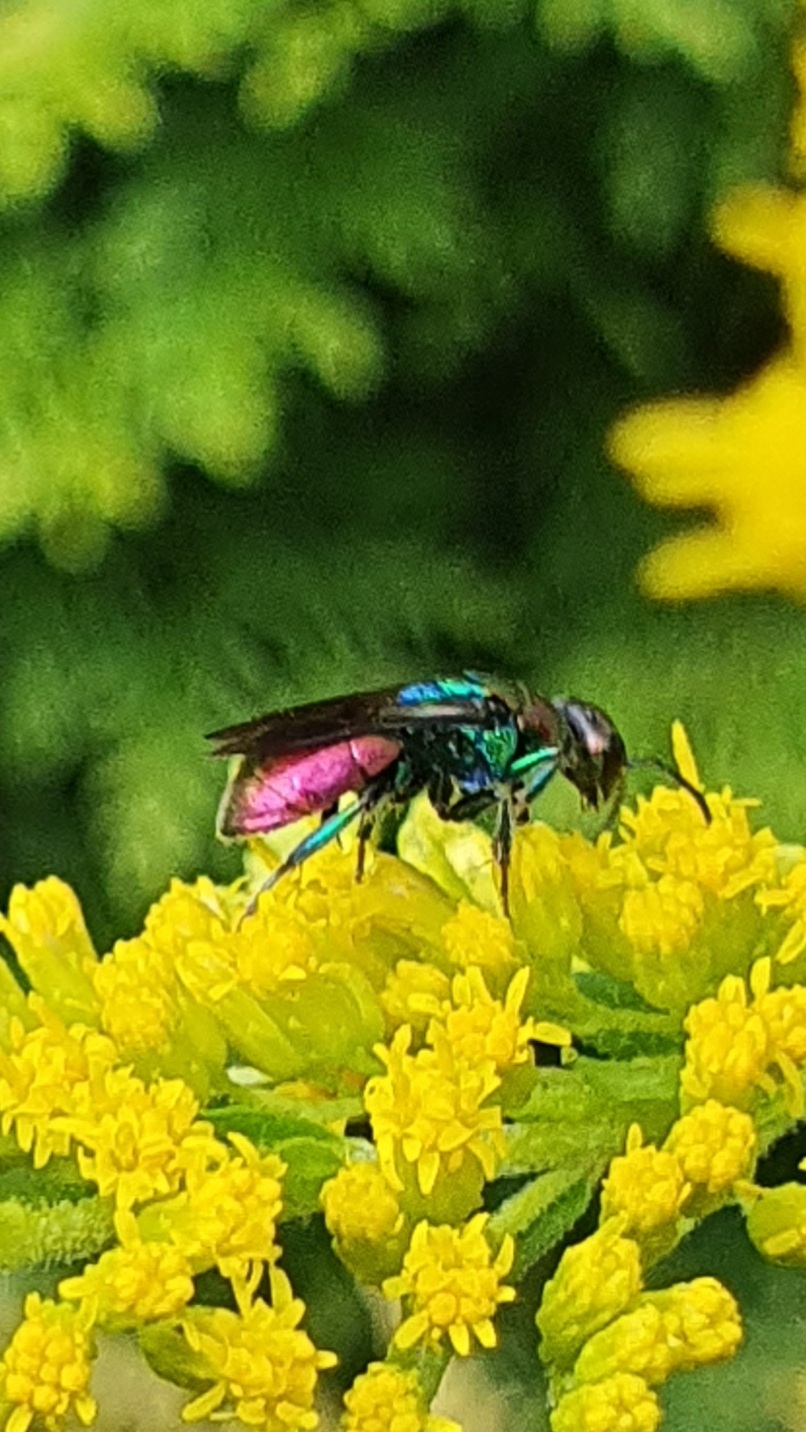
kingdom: Animalia
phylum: Arthropoda
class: Insecta
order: Hymenoptera
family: Chrysididae
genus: Hedychrum
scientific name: Hedychrum rutilans
